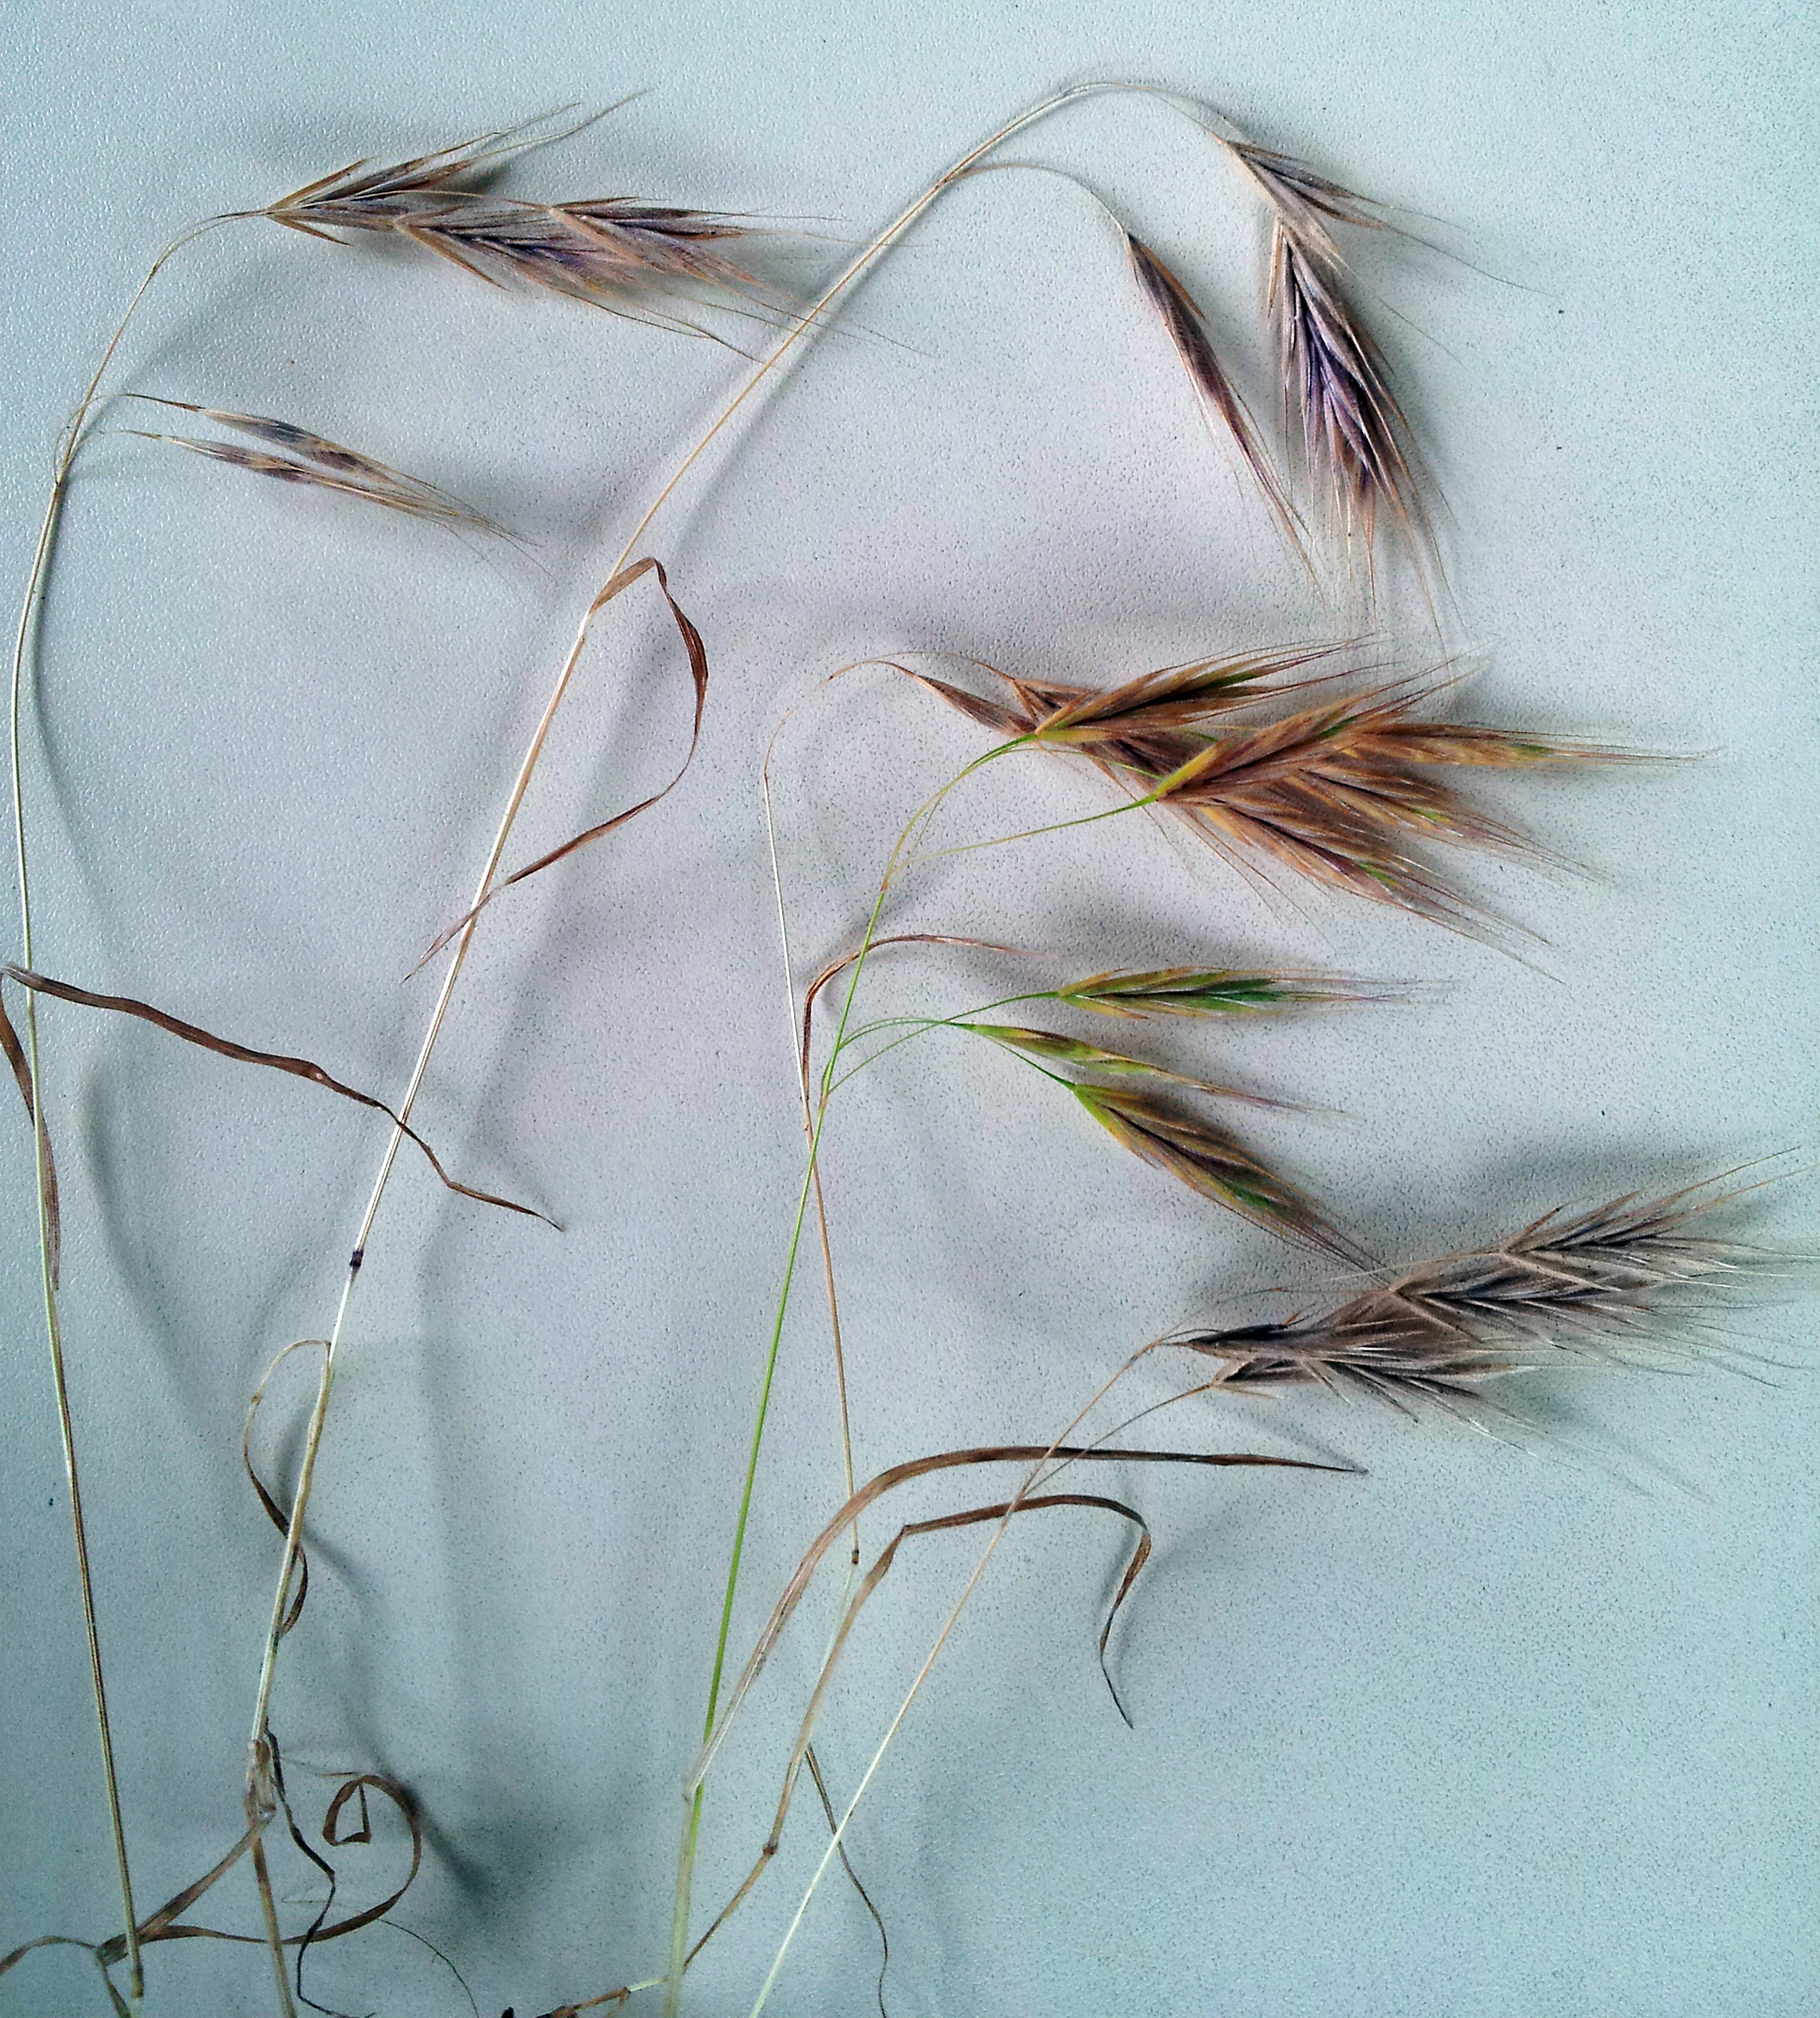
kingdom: Plantae
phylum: Tracheophyta
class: Liliopsida
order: Poales
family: Poaceae
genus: Bromus
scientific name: Bromus arenarius
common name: Australian brome
